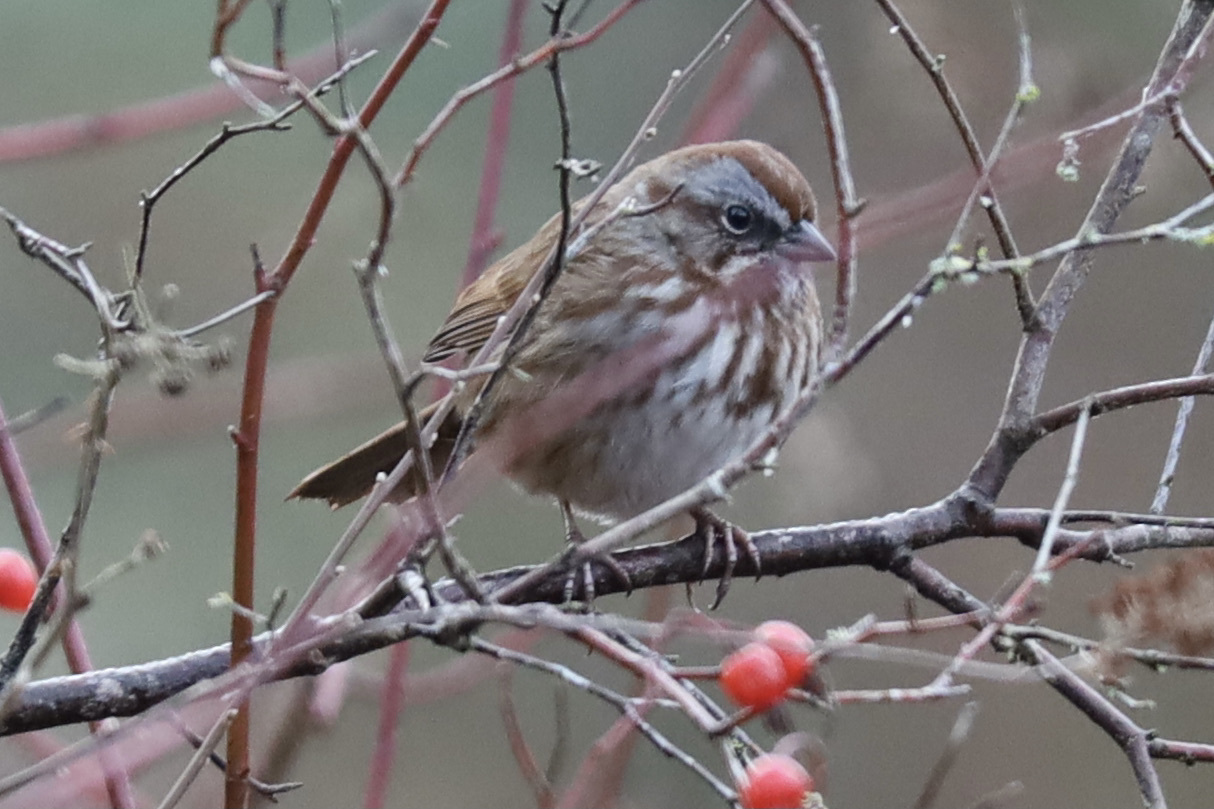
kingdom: Animalia
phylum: Chordata
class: Aves
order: Passeriformes
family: Passerellidae
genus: Melospiza
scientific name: Melospiza melodia
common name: Song sparrow
